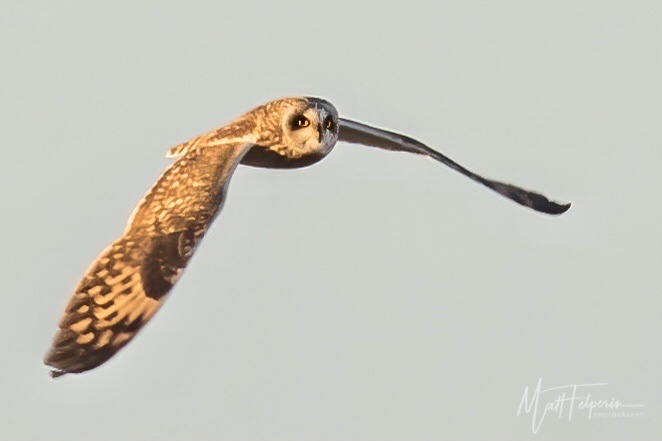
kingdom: Animalia
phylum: Chordata
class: Aves
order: Strigiformes
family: Strigidae
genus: Asio
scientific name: Asio flammeus
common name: Short-eared owl
